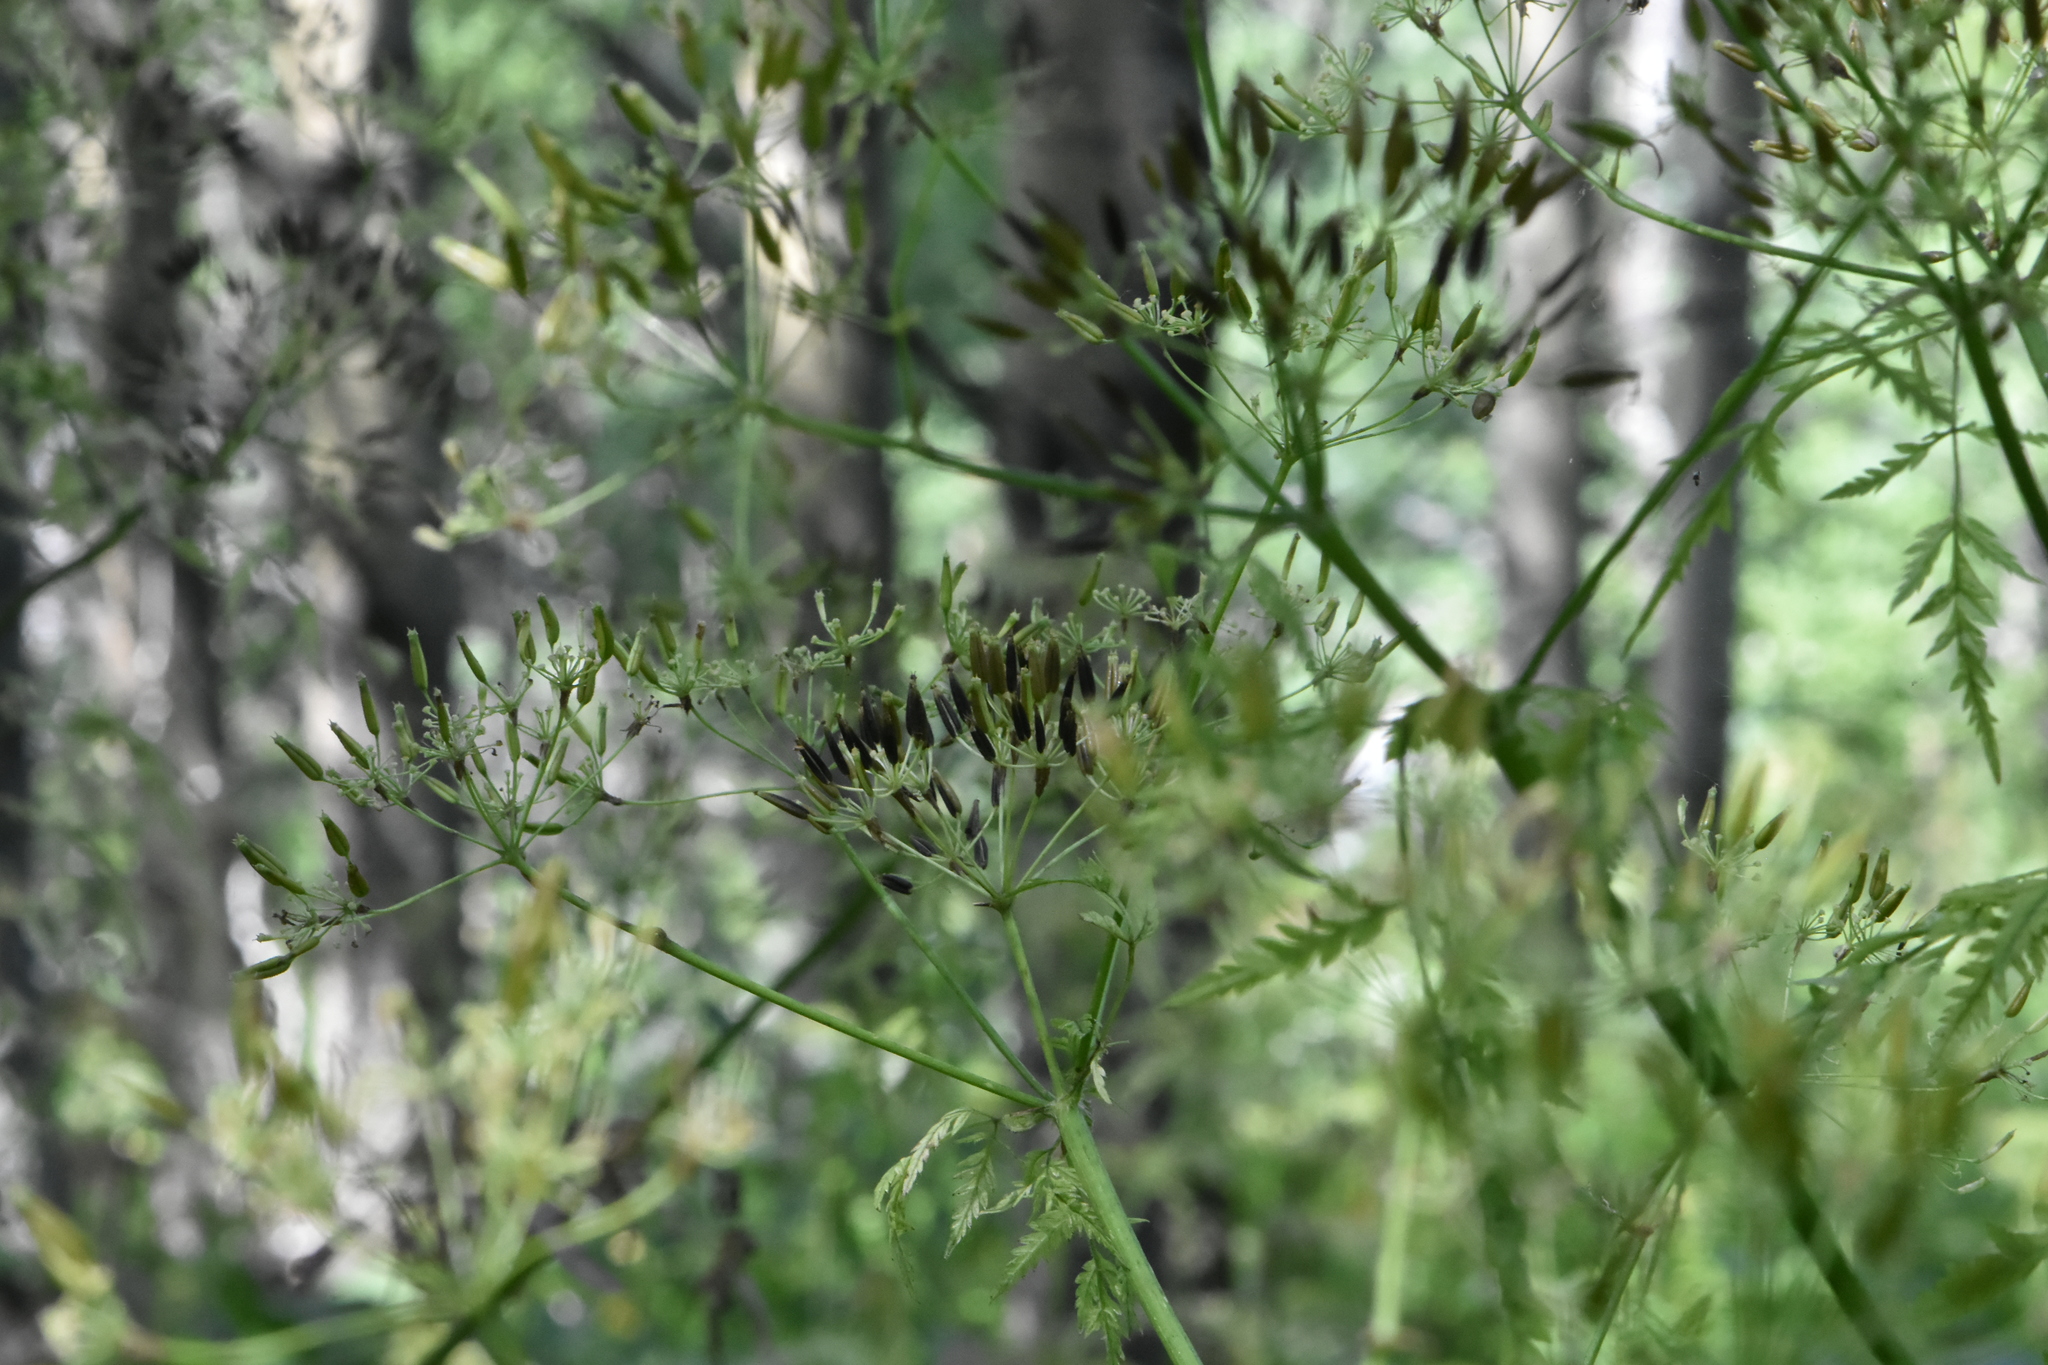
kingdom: Plantae
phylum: Tracheophyta
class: Magnoliopsida
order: Apiales
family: Apiaceae
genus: Anthriscus
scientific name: Anthriscus sylvestris
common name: Cow parsley
